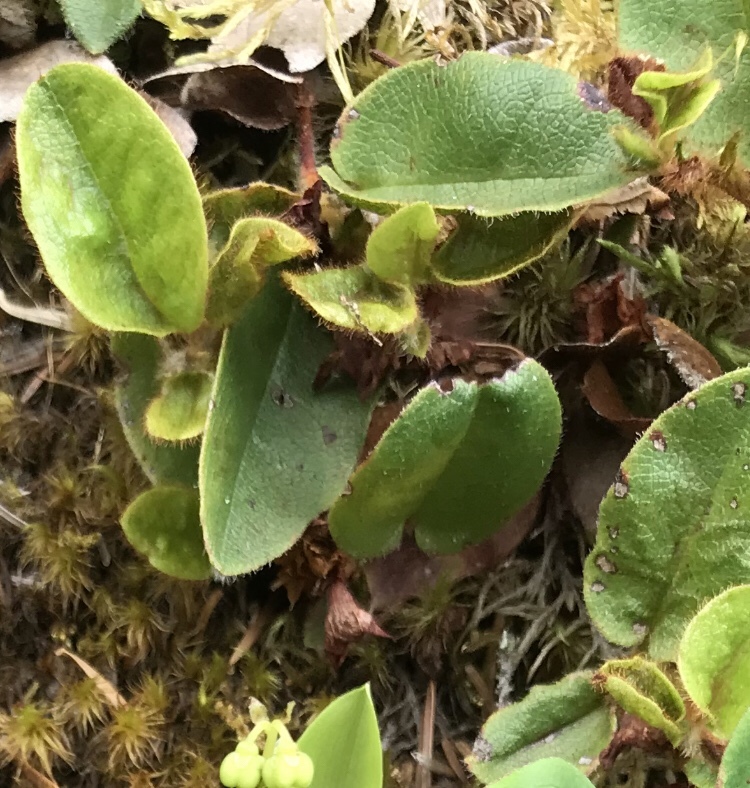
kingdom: Plantae
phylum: Tracheophyta
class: Magnoliopsida
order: Ericales
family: Ericaceae
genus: Epigaea
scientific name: Epigaea repens
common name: Gravelroot
